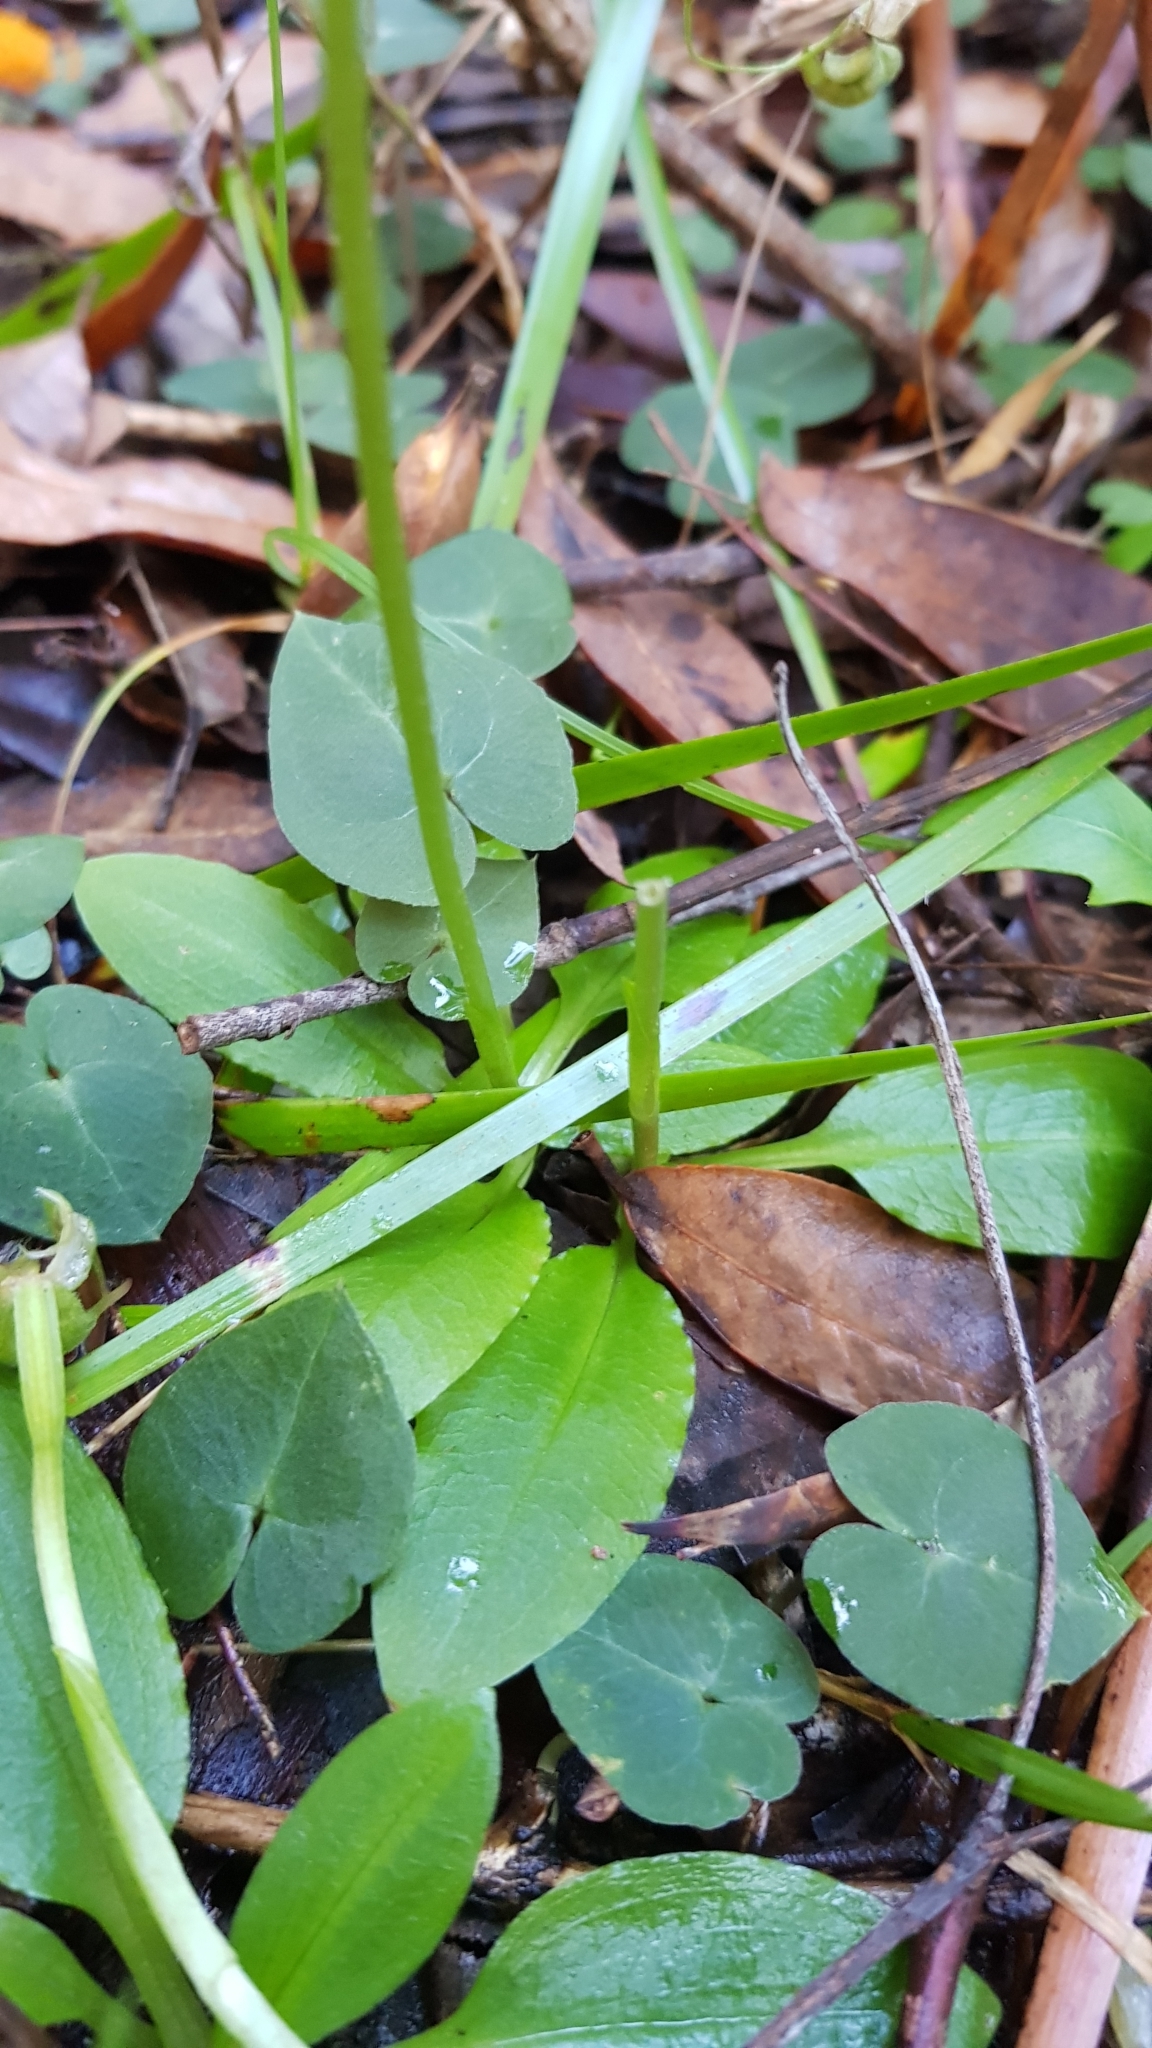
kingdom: Plantae
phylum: Tracheophyta
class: Liliopsida
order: Asparagales
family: Orchidaceae
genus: Pterostylis
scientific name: Pterostylis nutans
